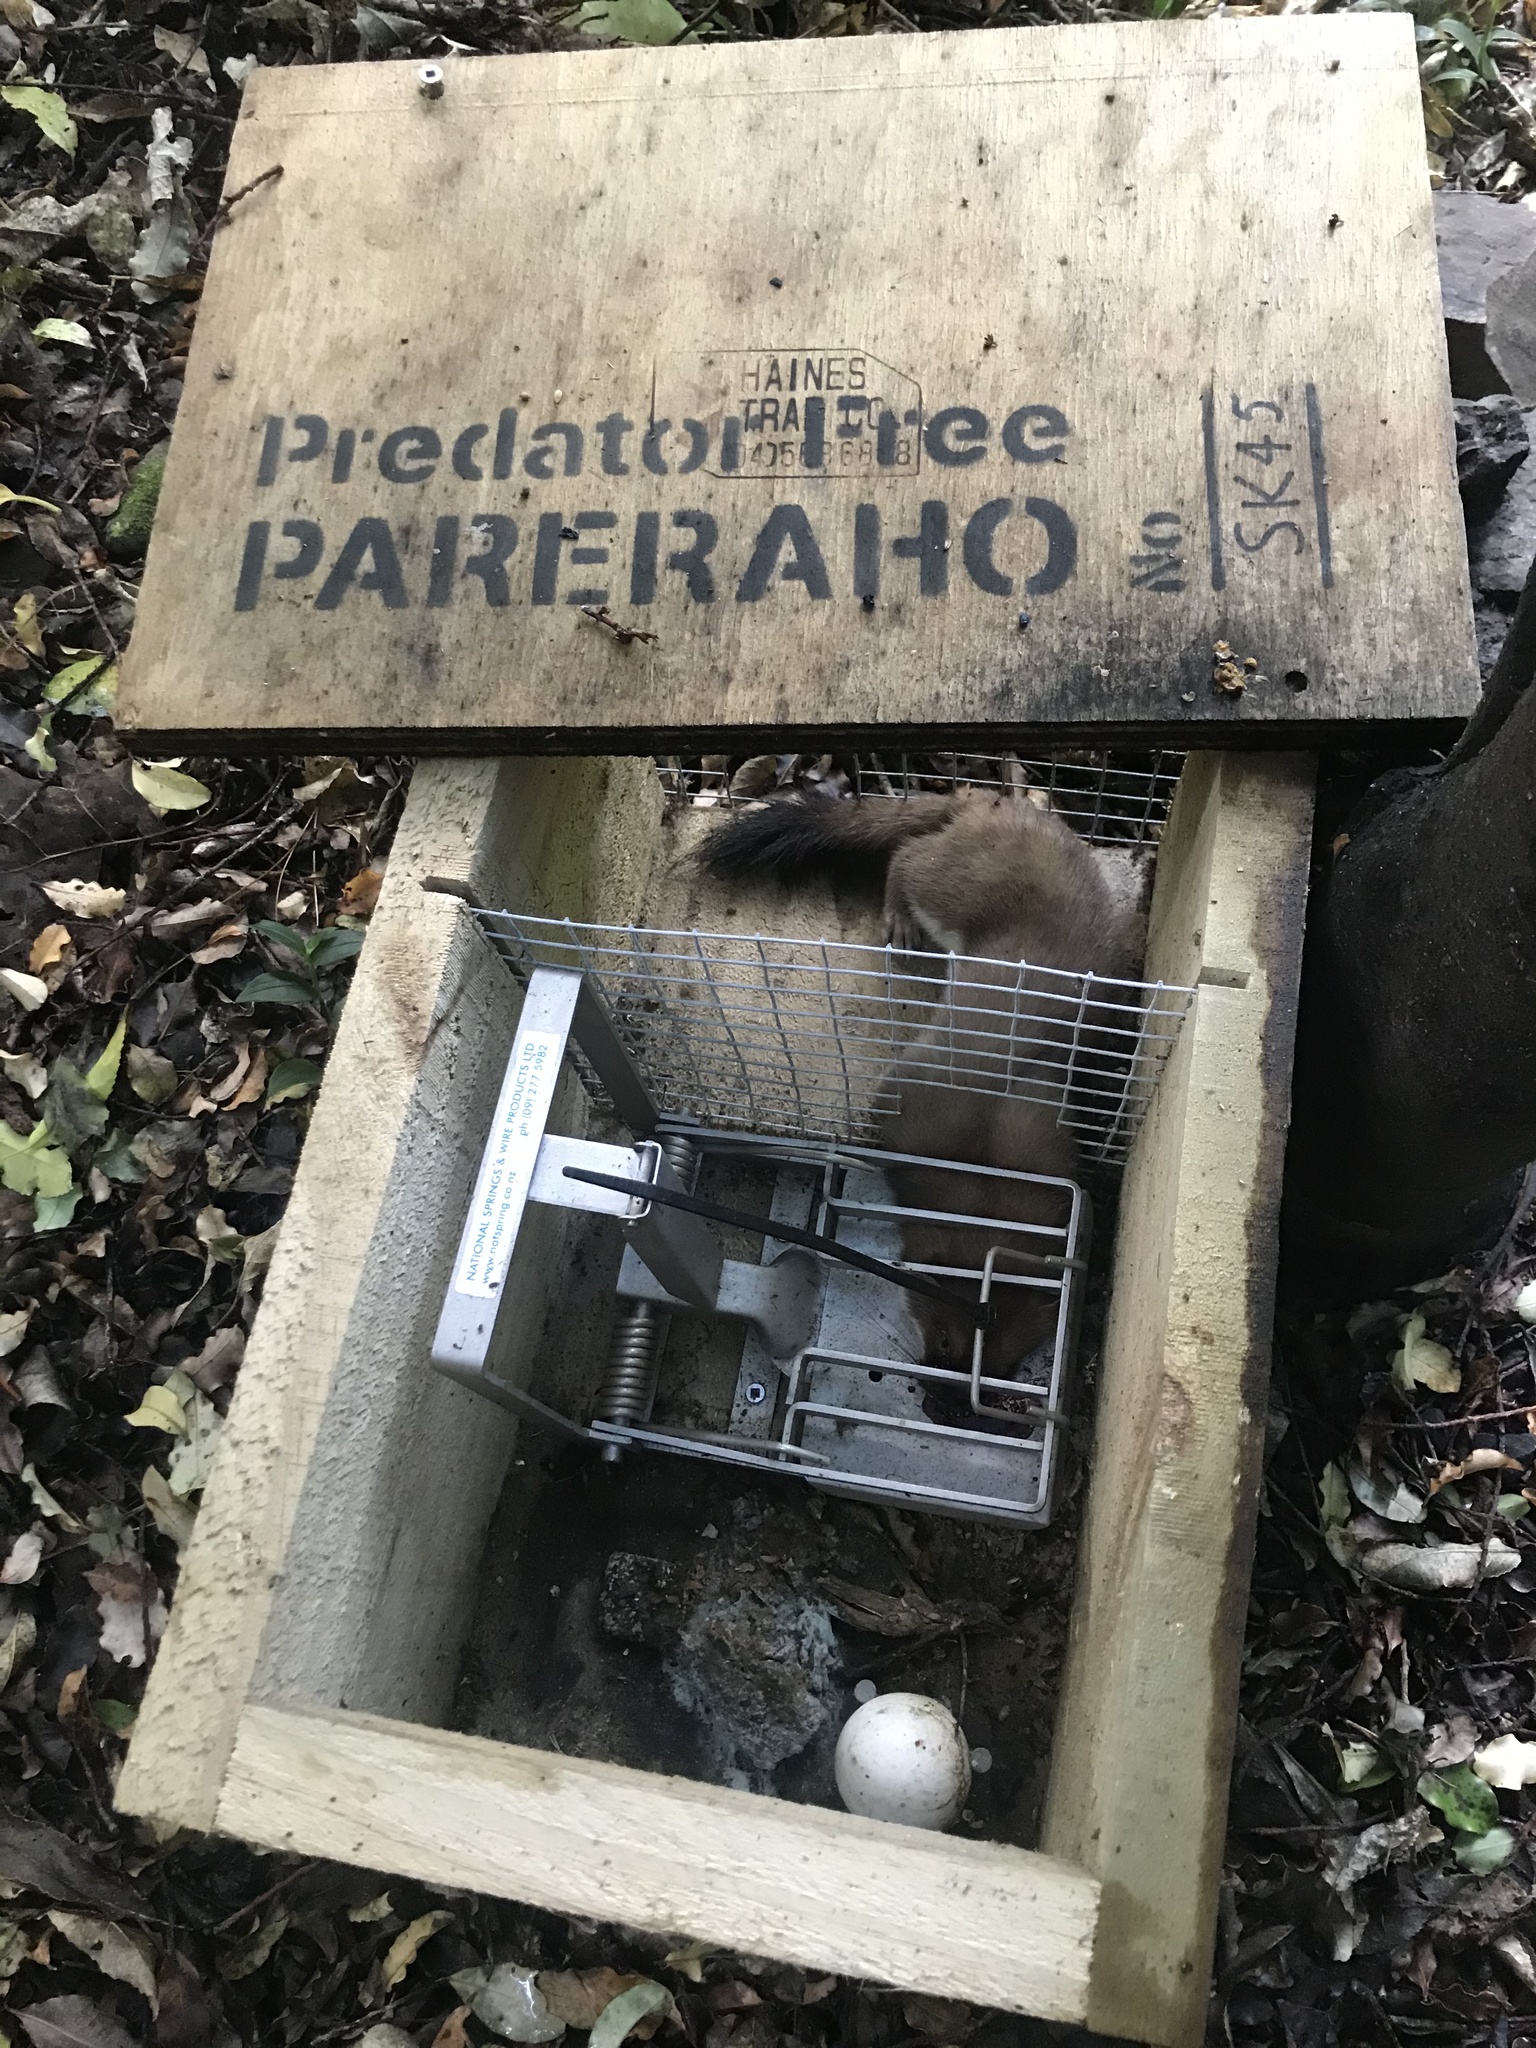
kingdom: Animalia
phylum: Chordata
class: Mammalia
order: Carnivora
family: Mustelidae
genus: Mustela
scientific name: Mustela erminea
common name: Stoat
